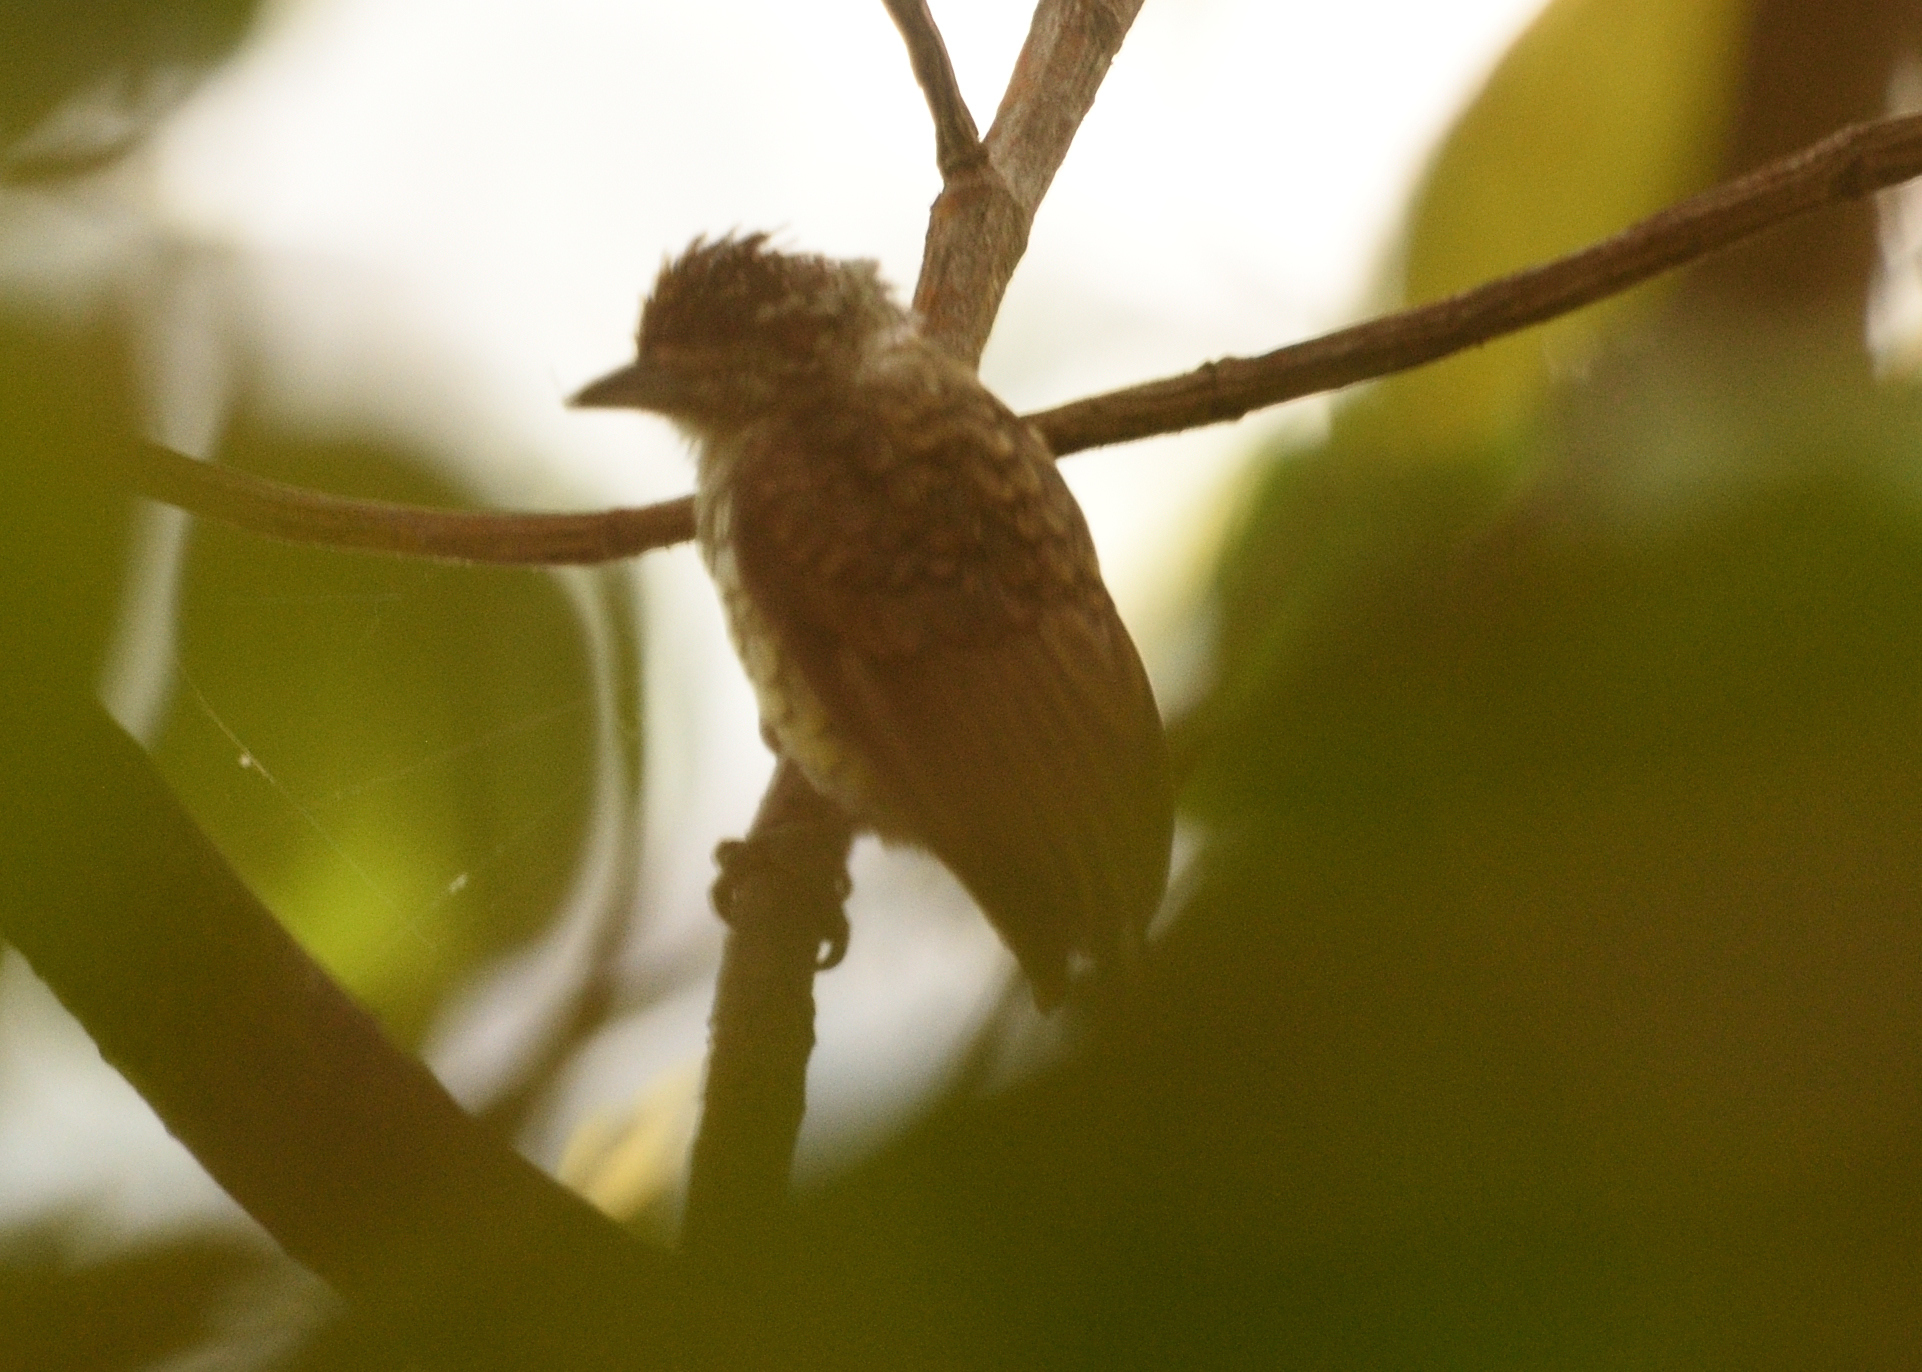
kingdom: Animalia
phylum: Chordata
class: Aves
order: Piciformes
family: Picidae
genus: Picumnus
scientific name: Picumnus squamulatus
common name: Scaled piculet
